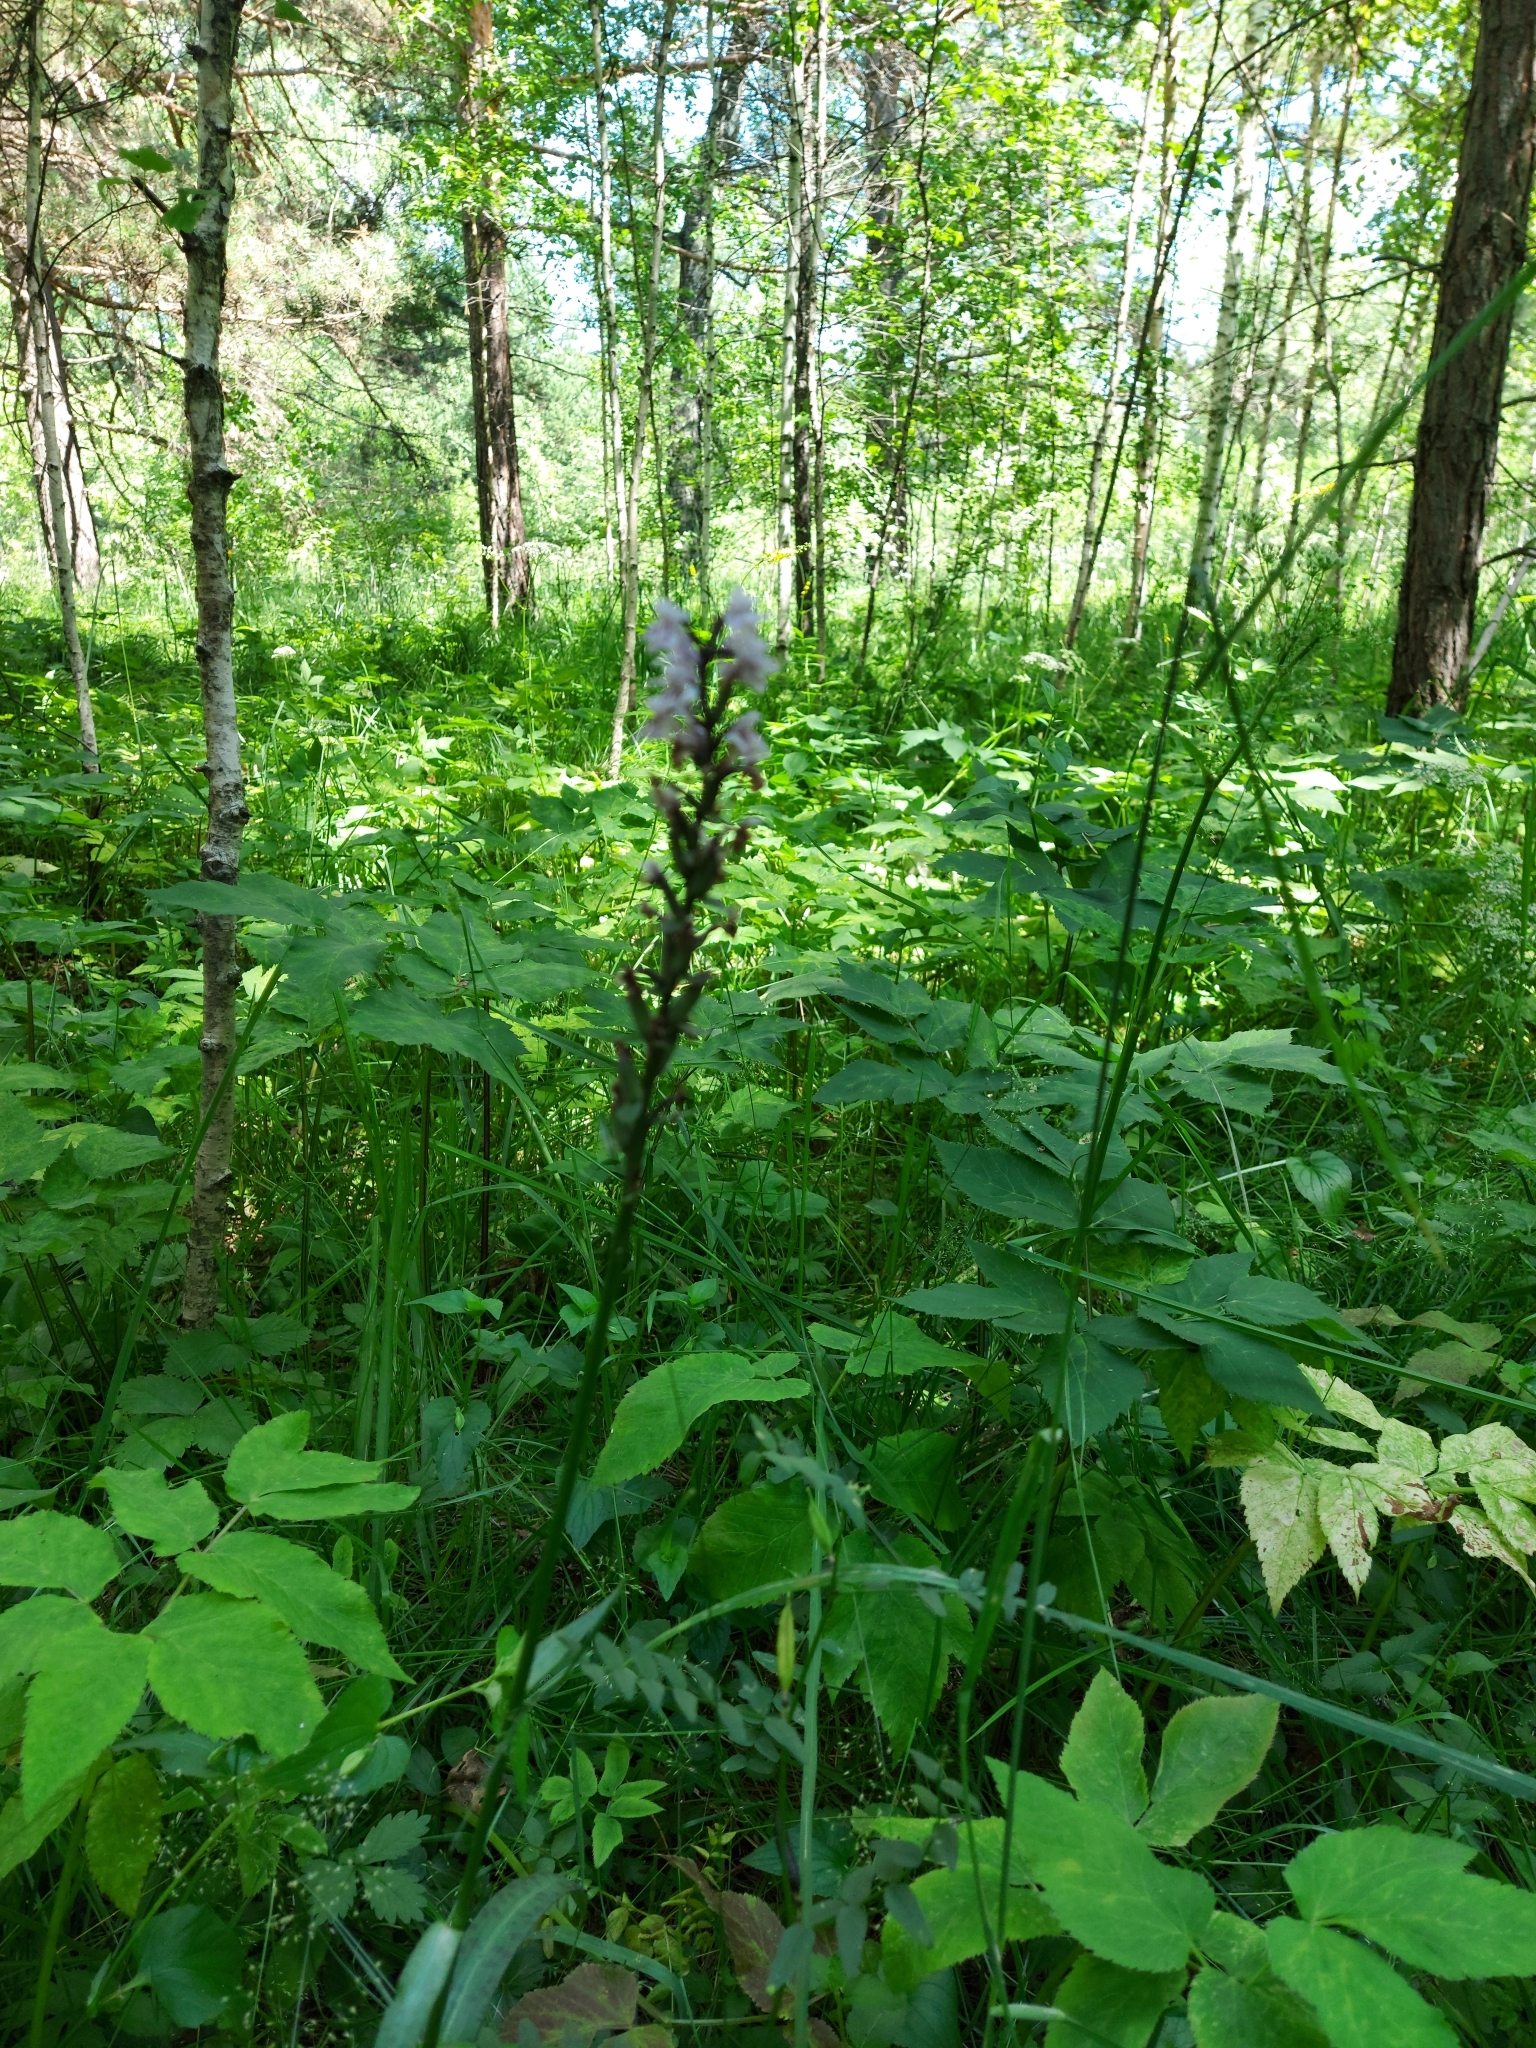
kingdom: Plantae
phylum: Tracheophyta
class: Liliopsida
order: Asparagales
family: Orchidaceae
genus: Dactylorhiza
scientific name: Dactylorhiza maculata
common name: Heath spotted-orchid
